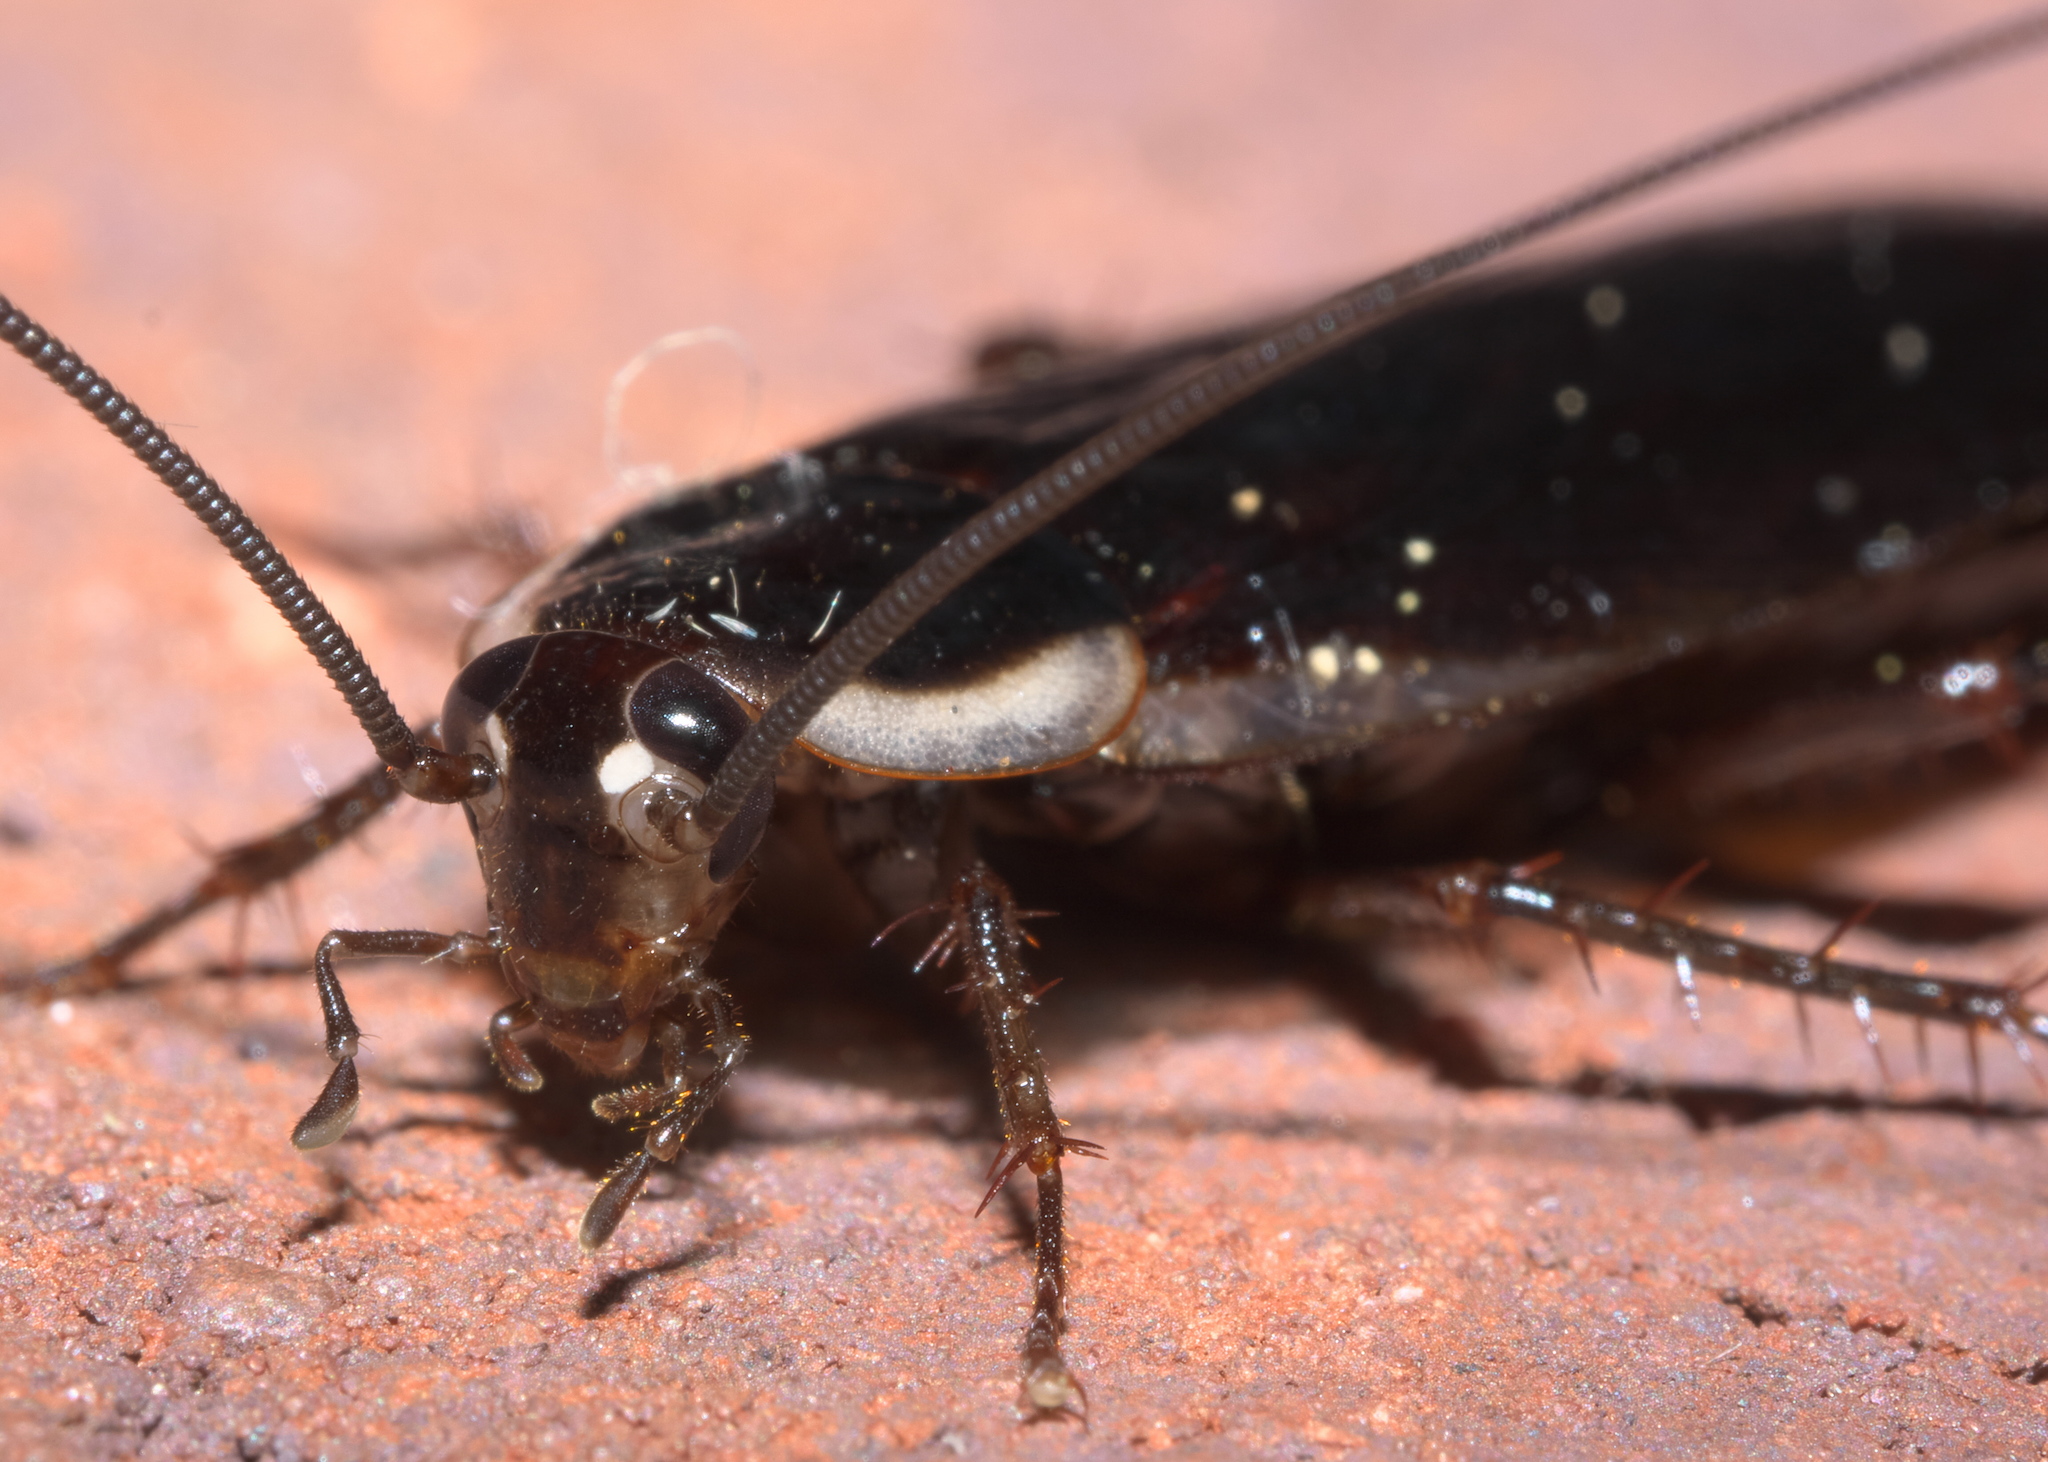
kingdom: Animalia
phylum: Arthropoda
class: Insecta
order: Blattodea
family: Ectobiidae
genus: Parcoblatta
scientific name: Parcoblatta pennsylvanica
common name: Pennsylvanian wood cockroach
